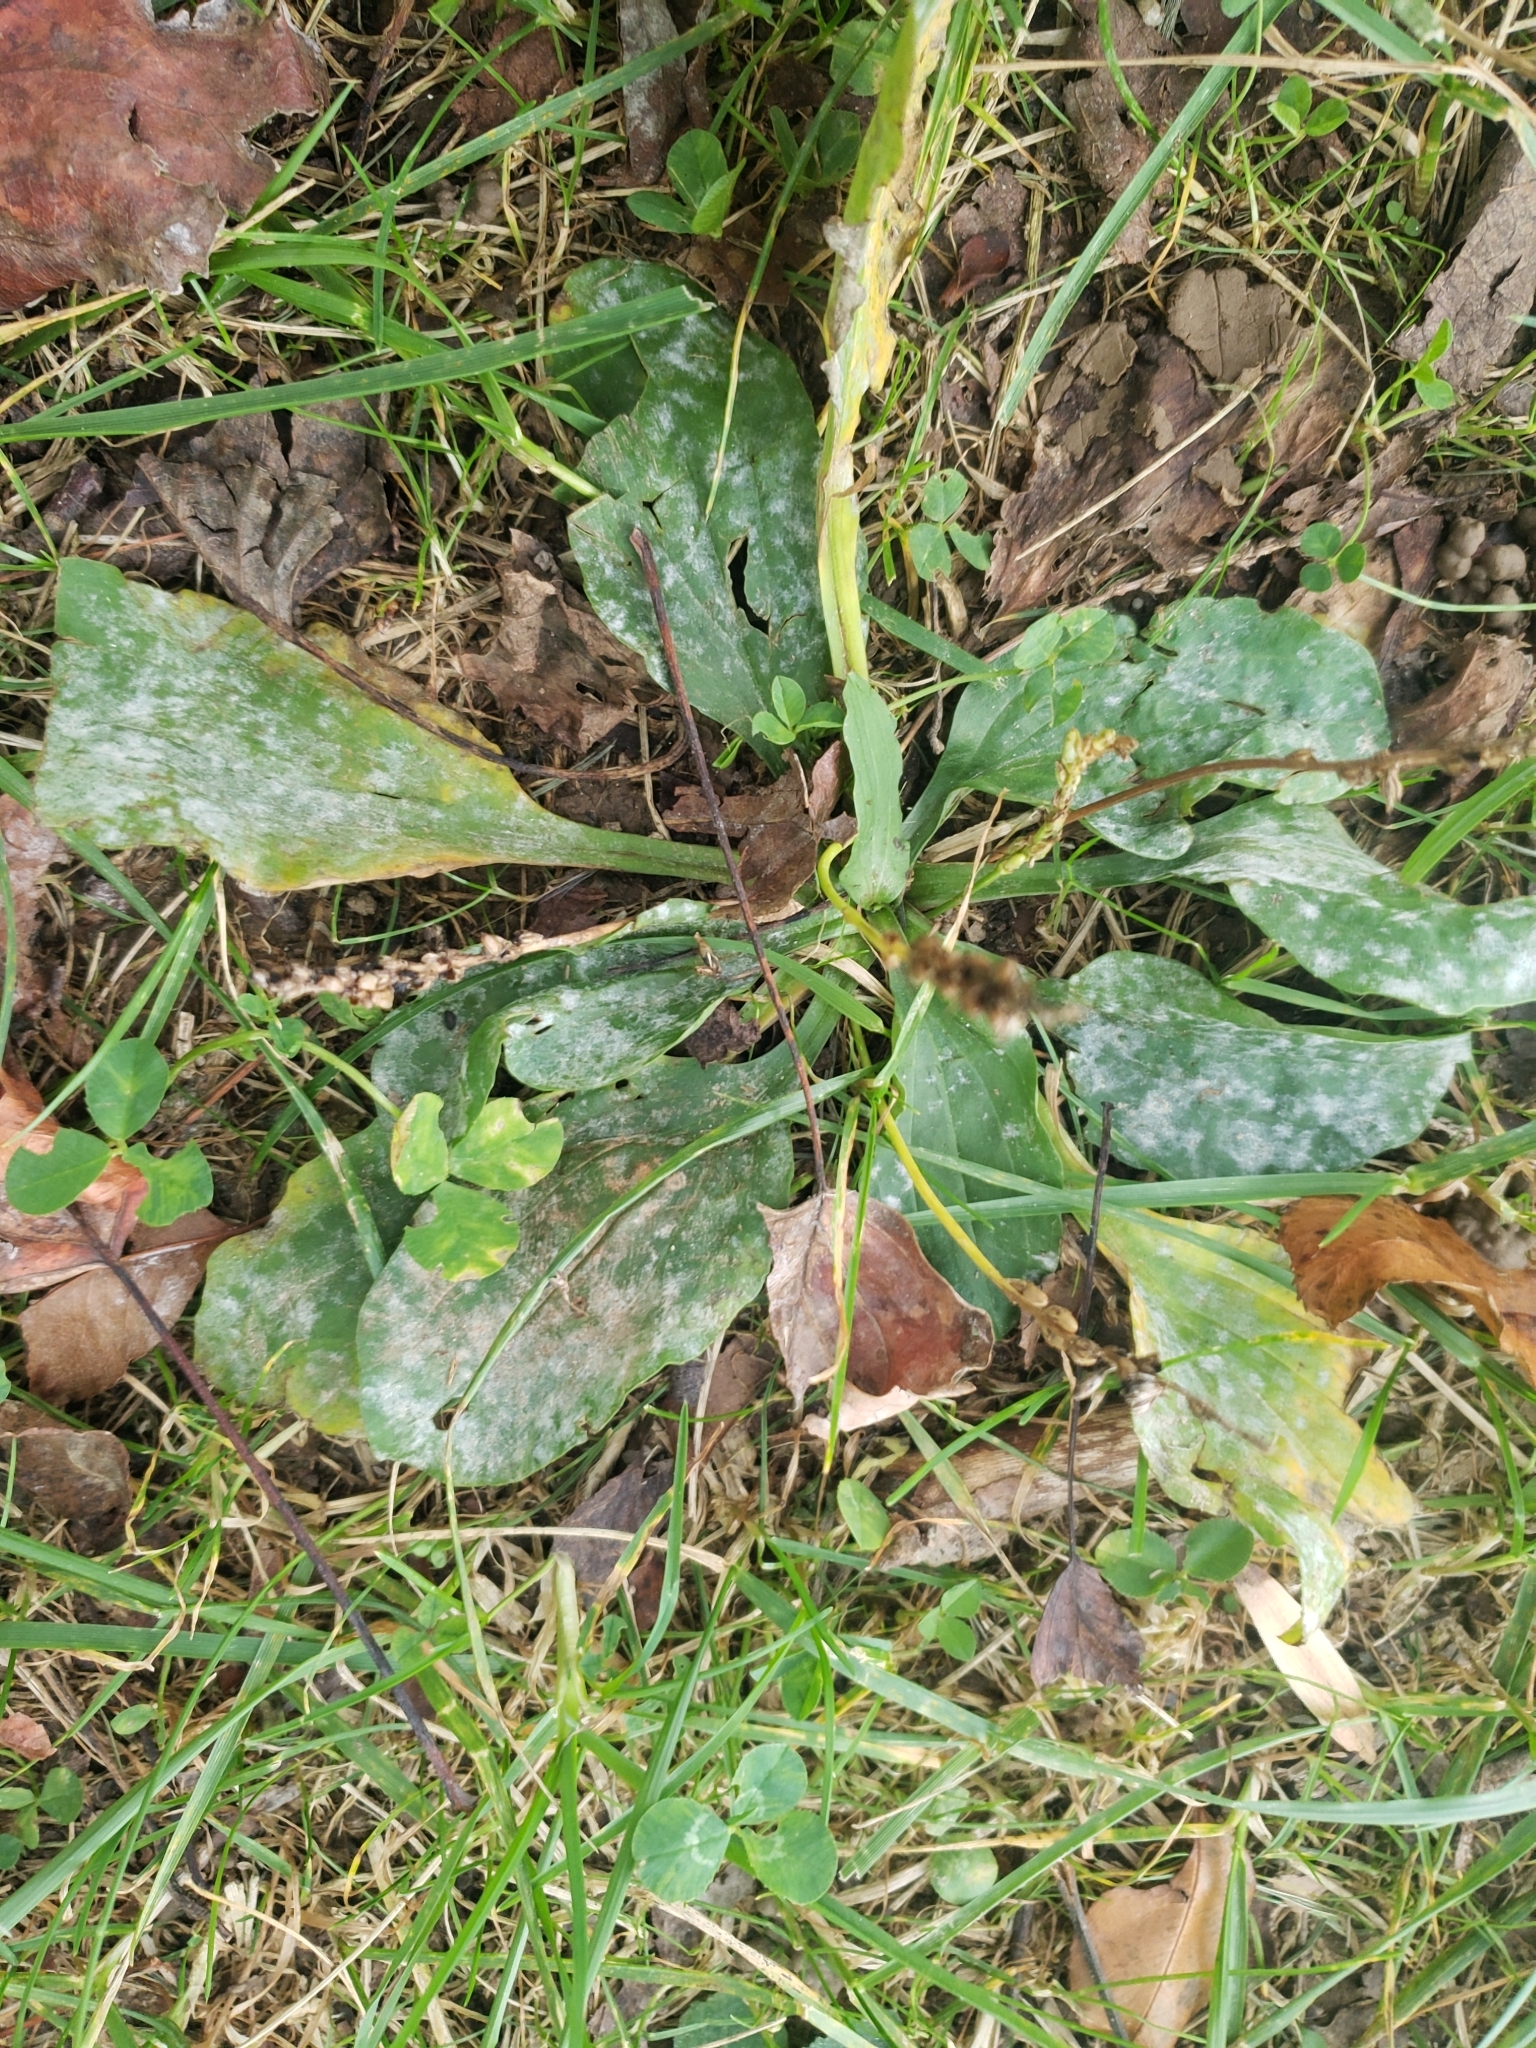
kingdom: Fungi
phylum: Ascomycota
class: Leotiomycetes
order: Helotiales
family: Erysiphaceae
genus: Golovinomyces
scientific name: Golovinomyces sordidus
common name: Plantain mildew
